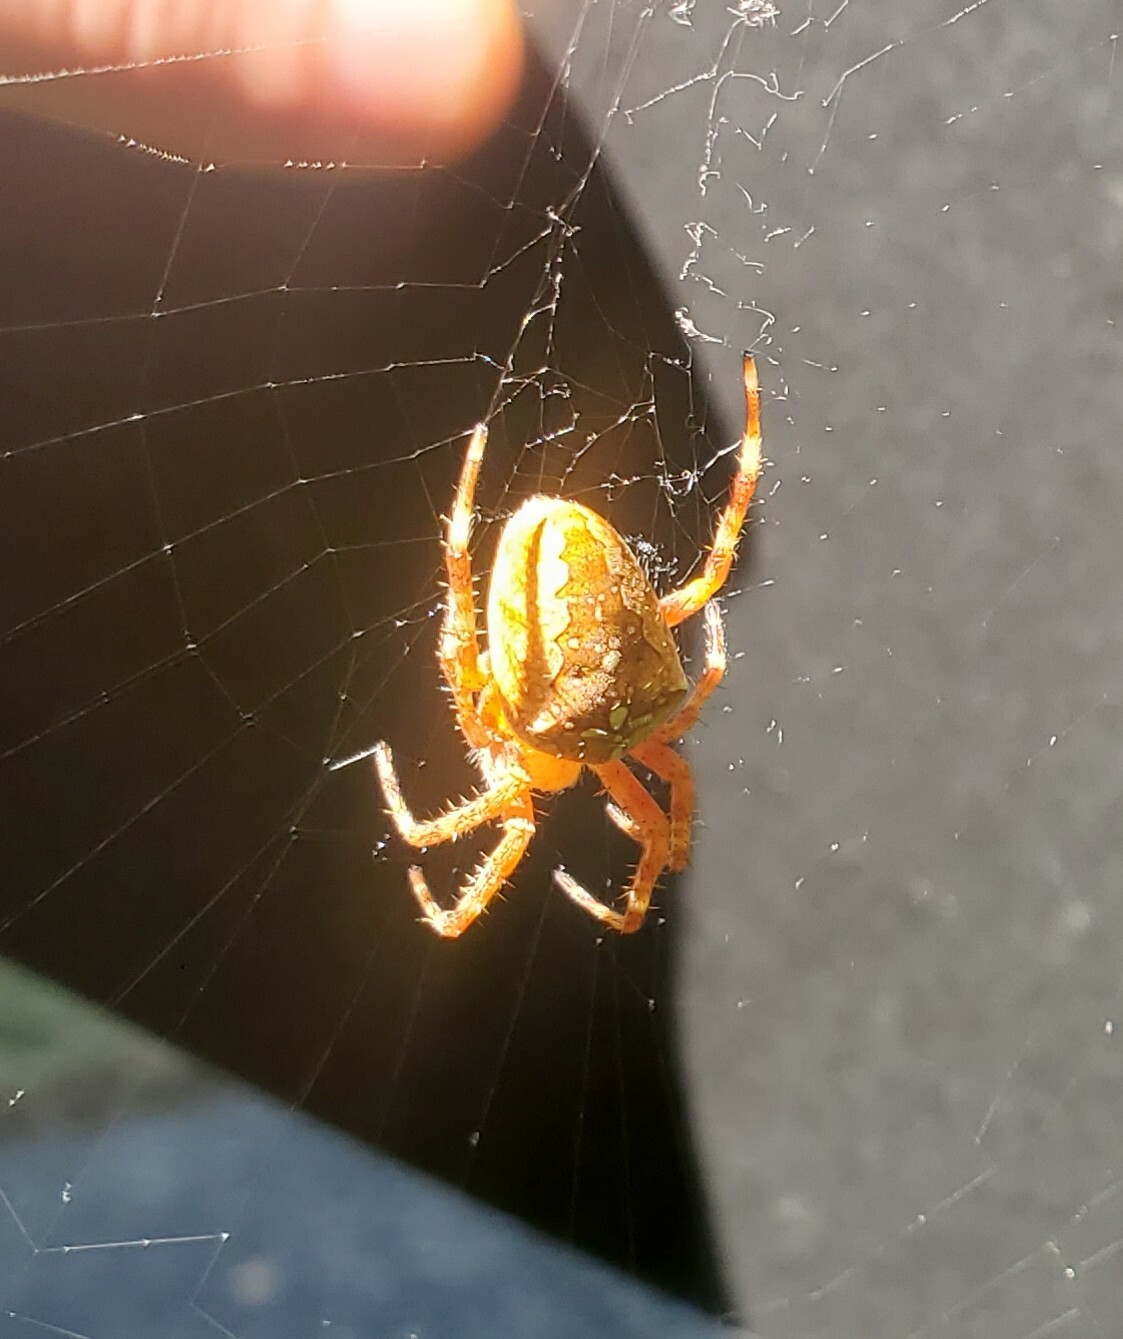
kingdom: Animalia
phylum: Arthropoda
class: Arachnida
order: Araneae
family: Araneidae
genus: Araneus
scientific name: Araneus diadematus
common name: Cross orbweaver
